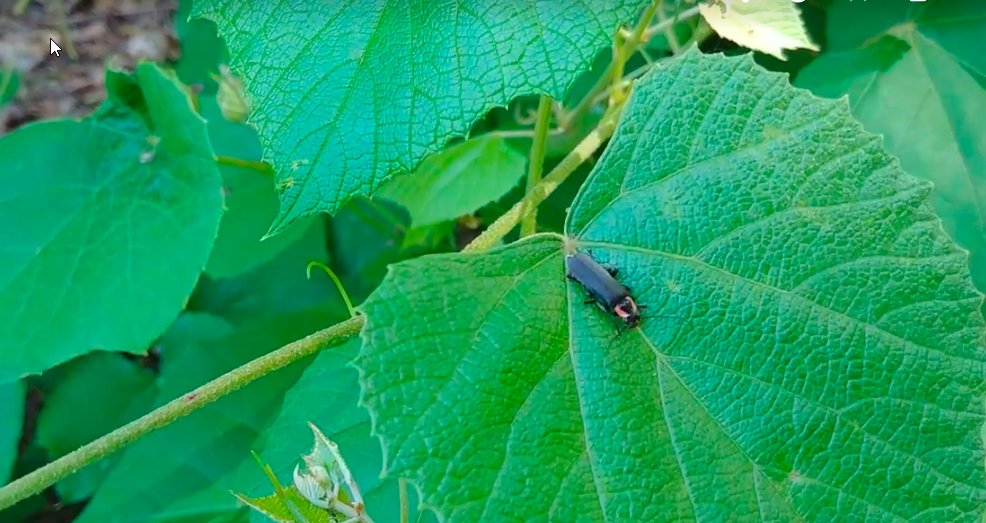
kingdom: Animalia
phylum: Arthropoda
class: Insecta
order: Coleoptera
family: Cantharidae
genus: Rhaxonycha
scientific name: Rhaxonycha carolina
